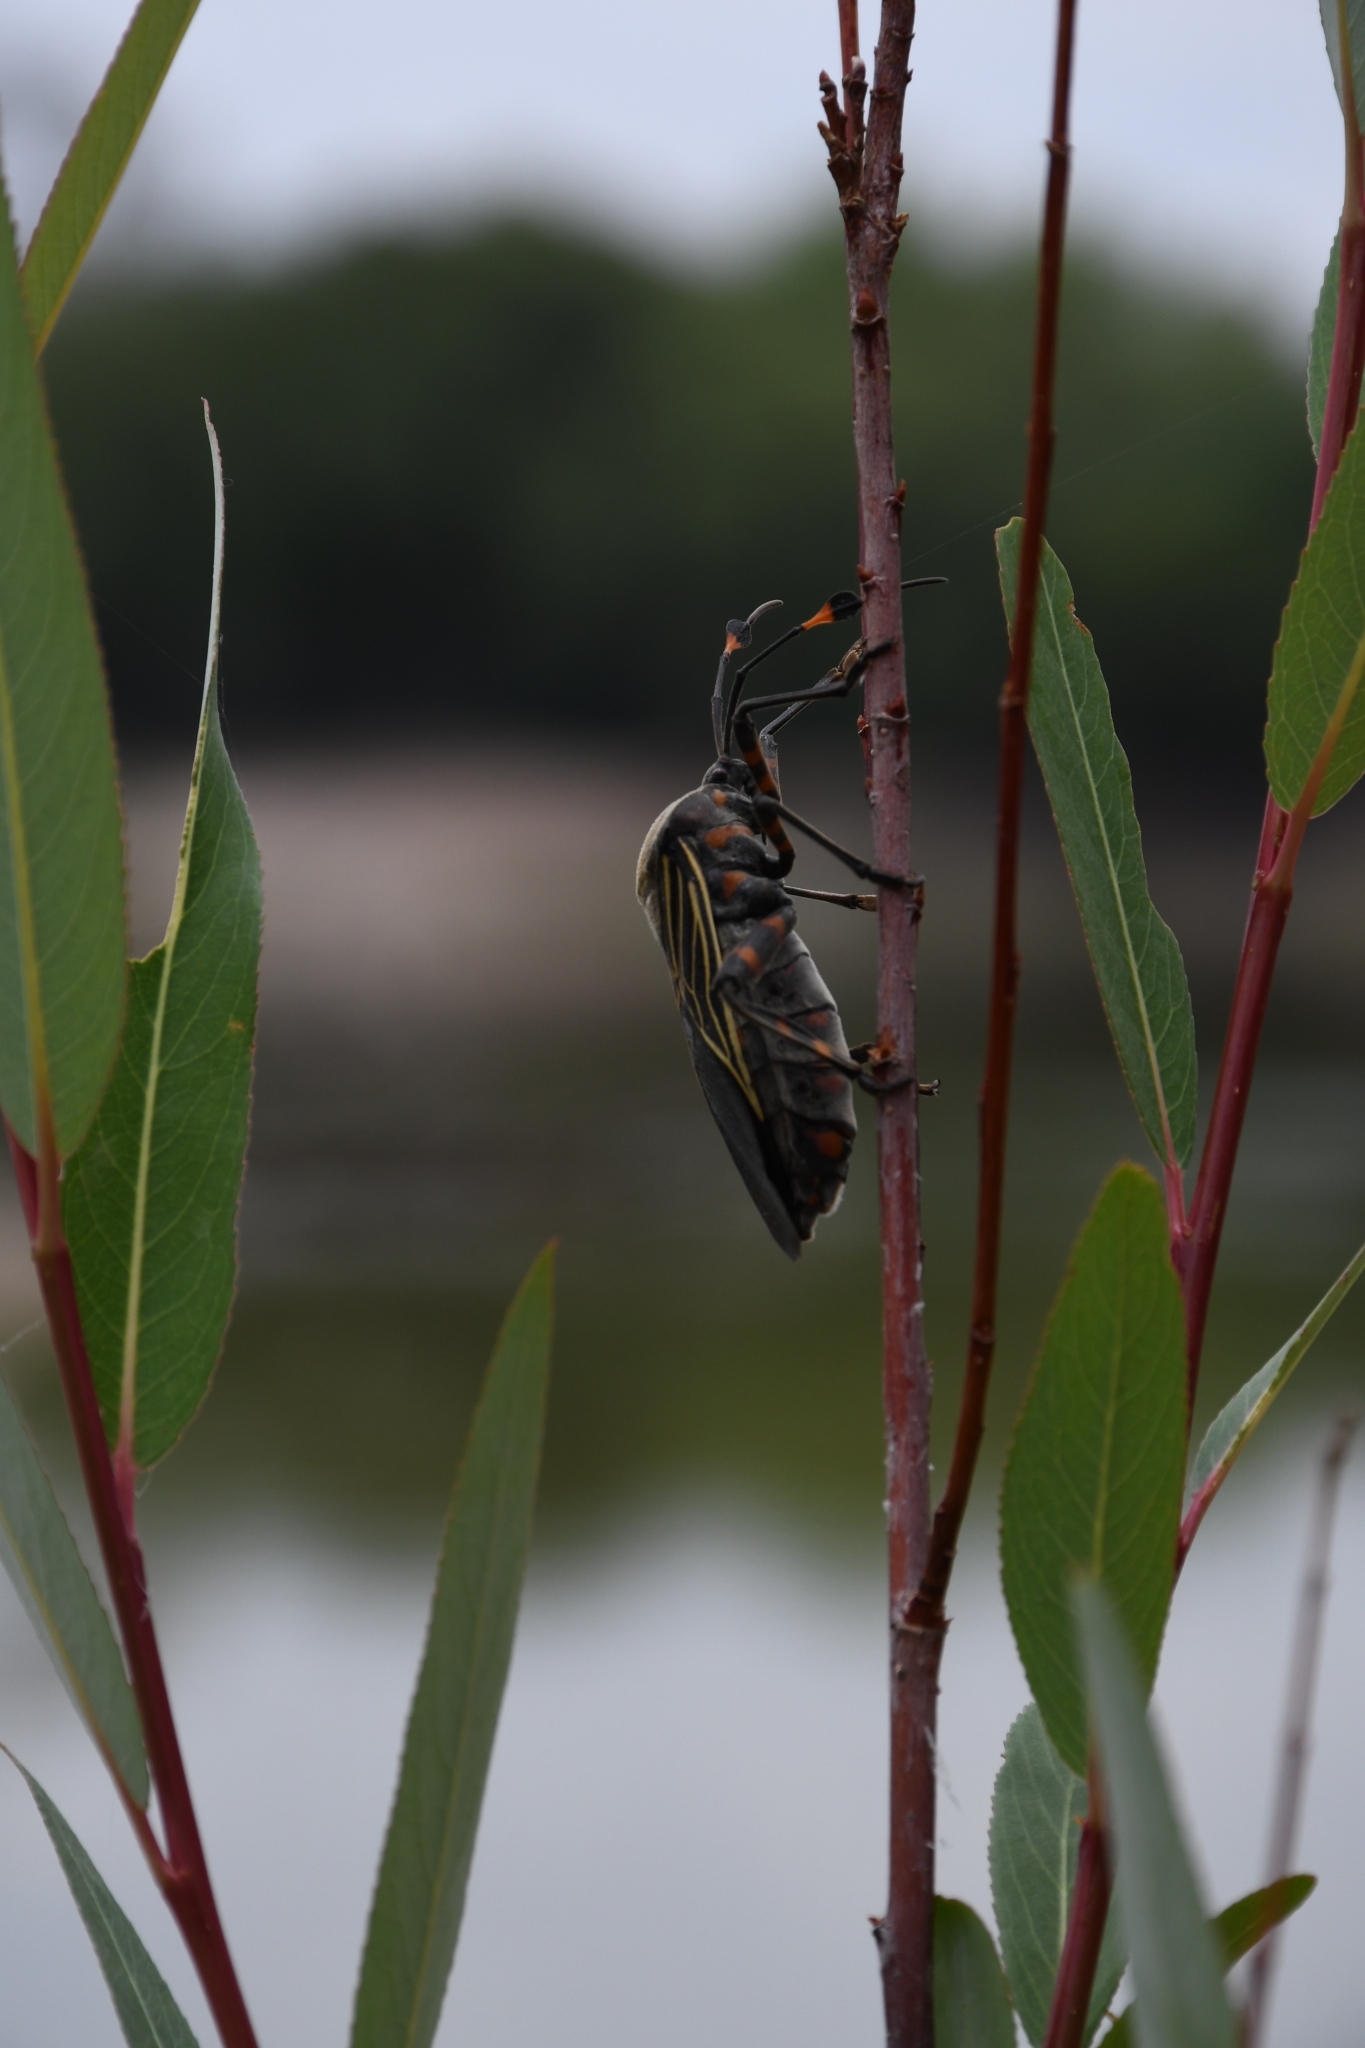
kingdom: Animalia
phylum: Arthropoda
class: Insecta
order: Hemiptera
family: Coreidae
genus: Thasus
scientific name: Thasus
